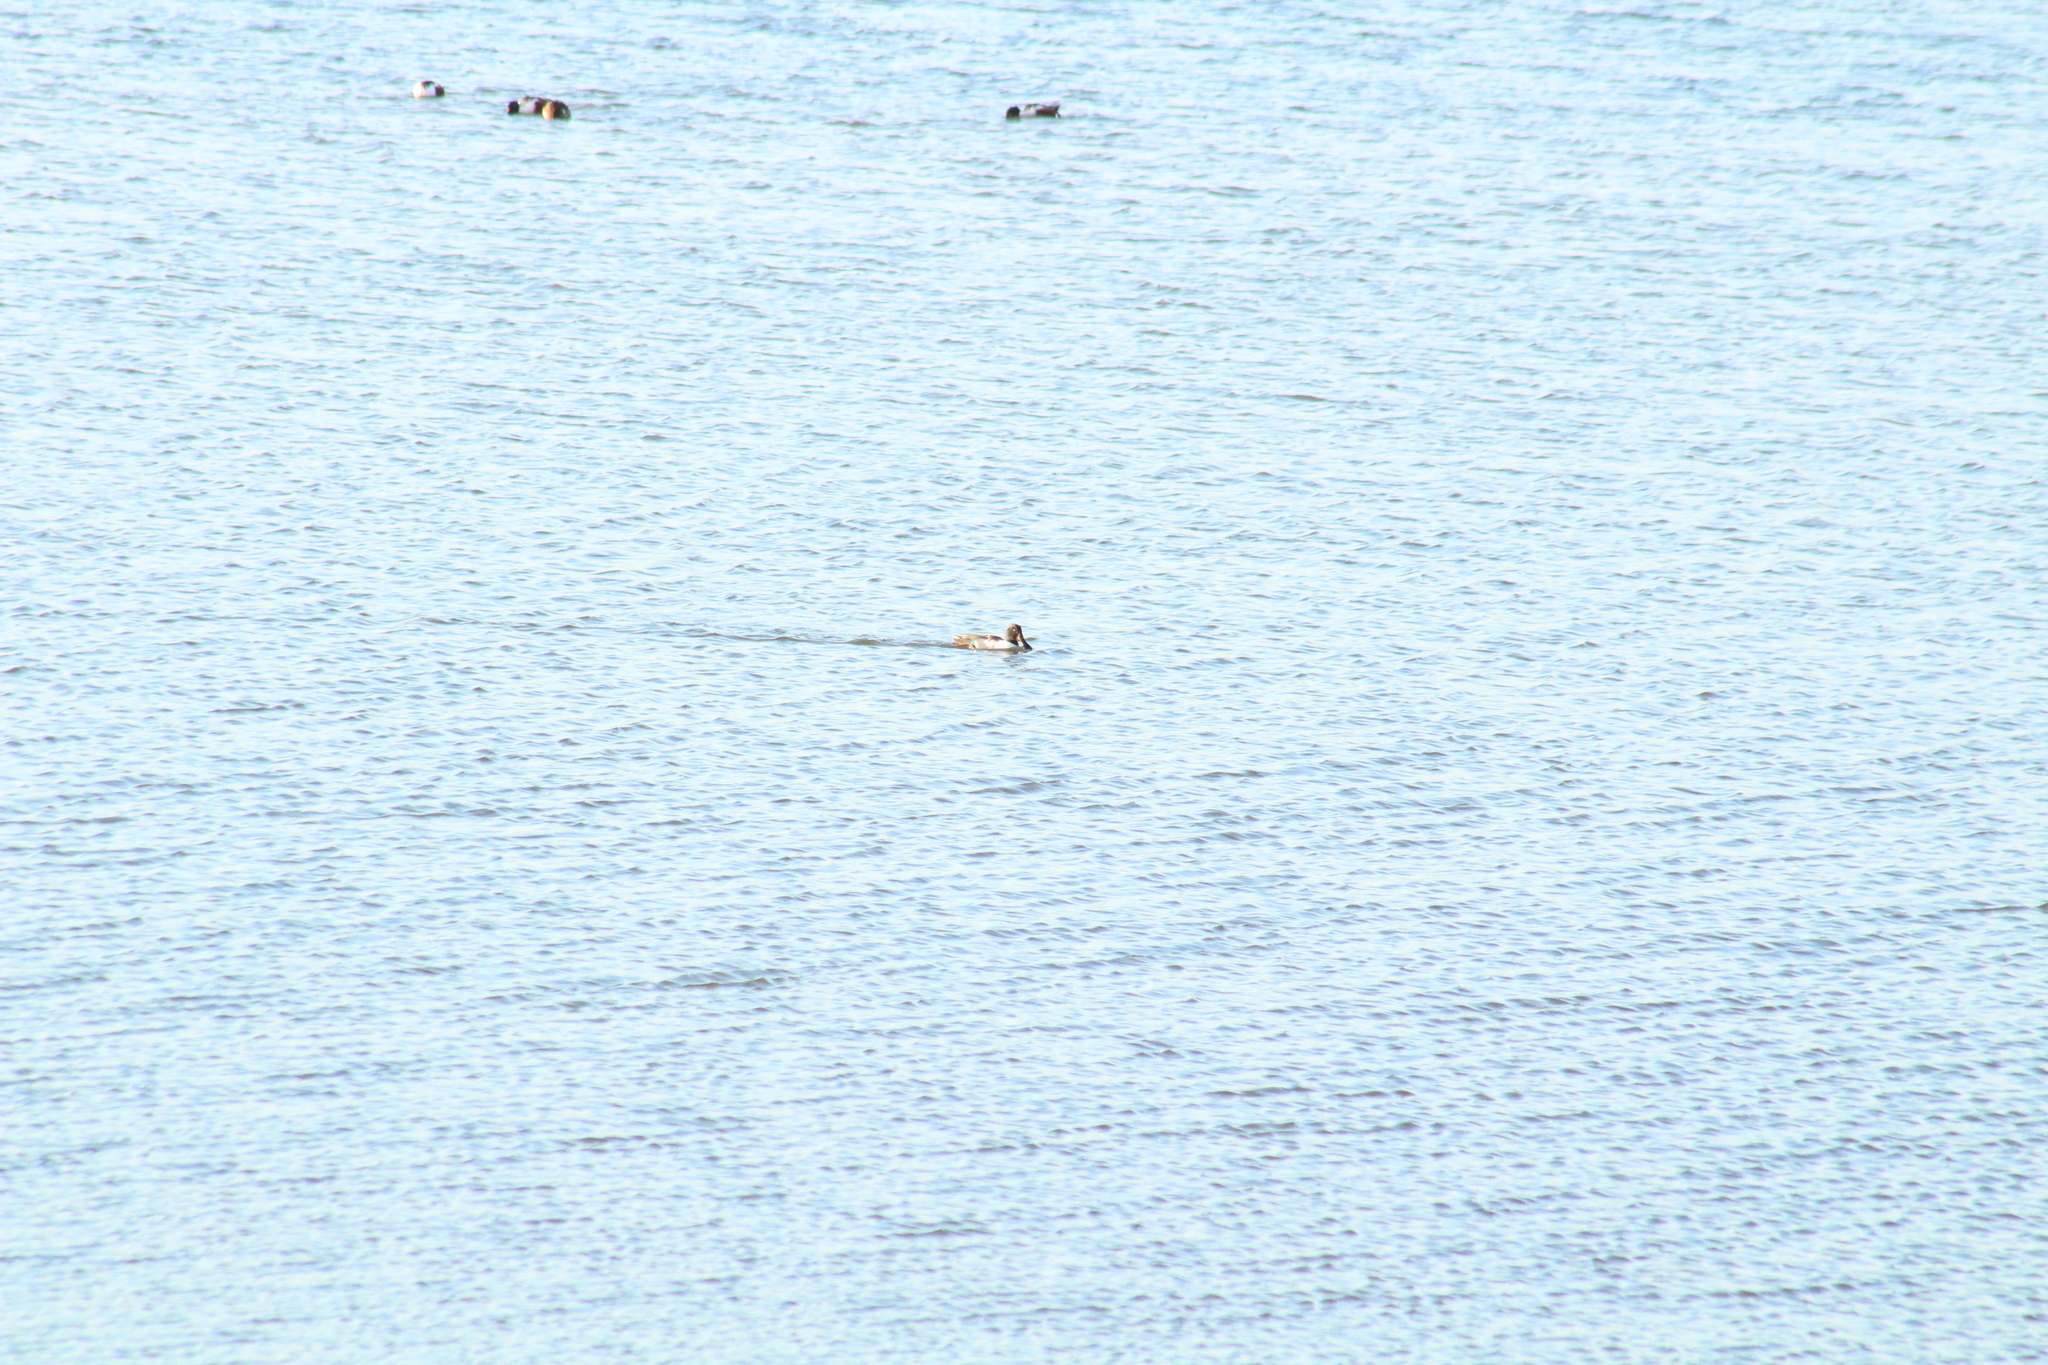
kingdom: Animalia
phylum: Chordata
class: Aves
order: Anseriformes
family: Anatidae
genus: Spatula
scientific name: Spatula clypeata
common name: Northern shoveler
